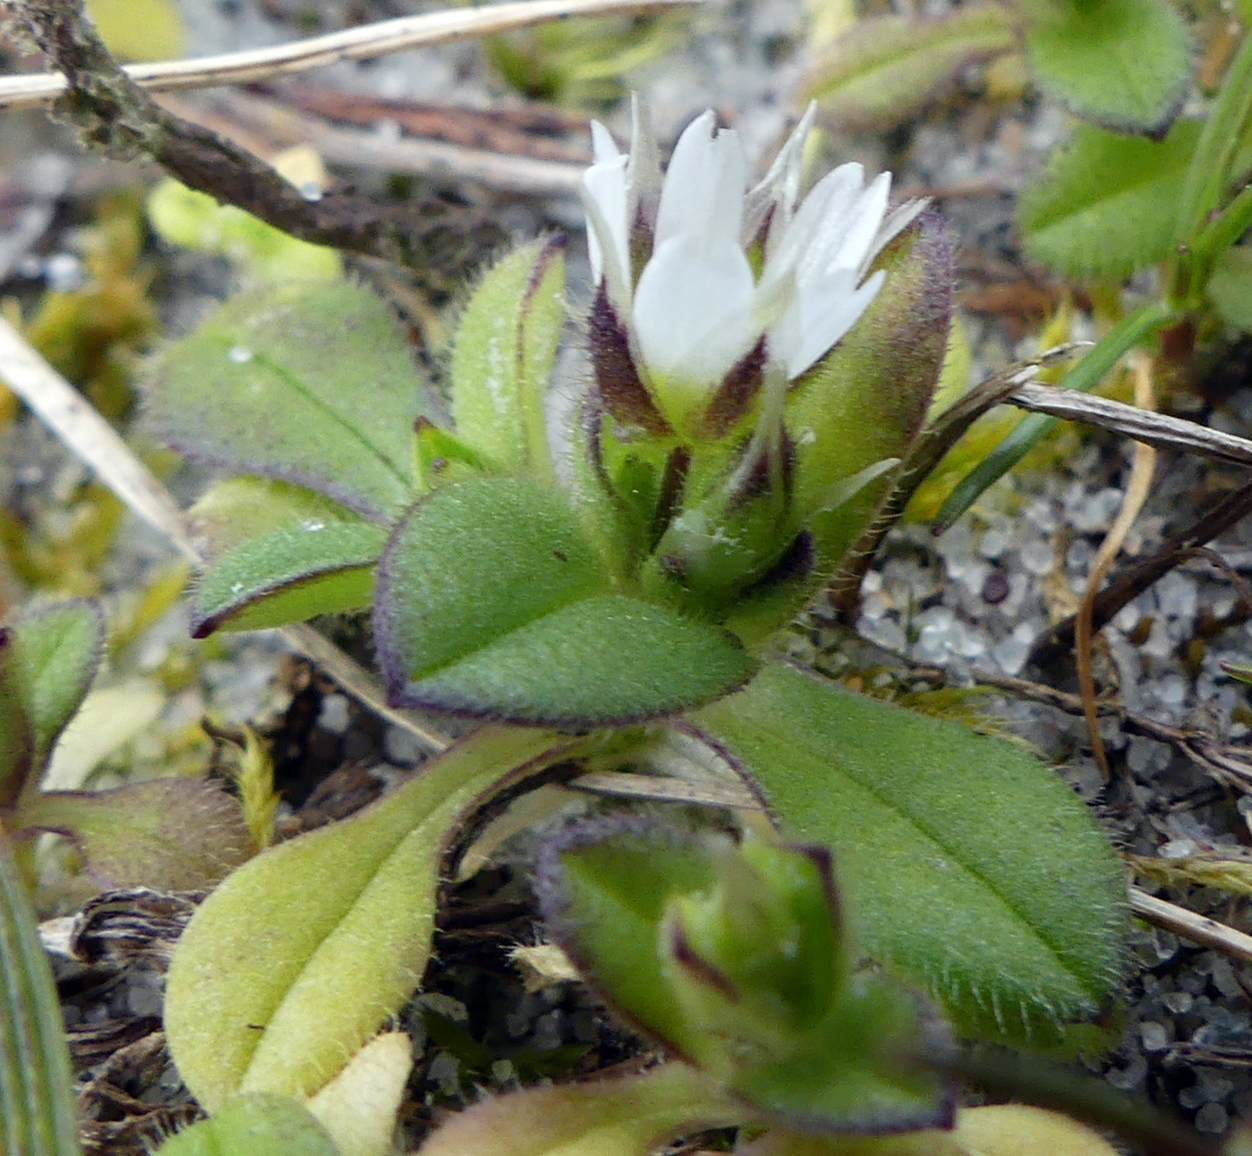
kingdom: Plantae
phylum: Tracheophyta
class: Magnoliopsida
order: Caryophyllales
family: Caryophyllaceae
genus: Cerastium
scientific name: Cerastium semidecandrum
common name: Little mouse-ear
